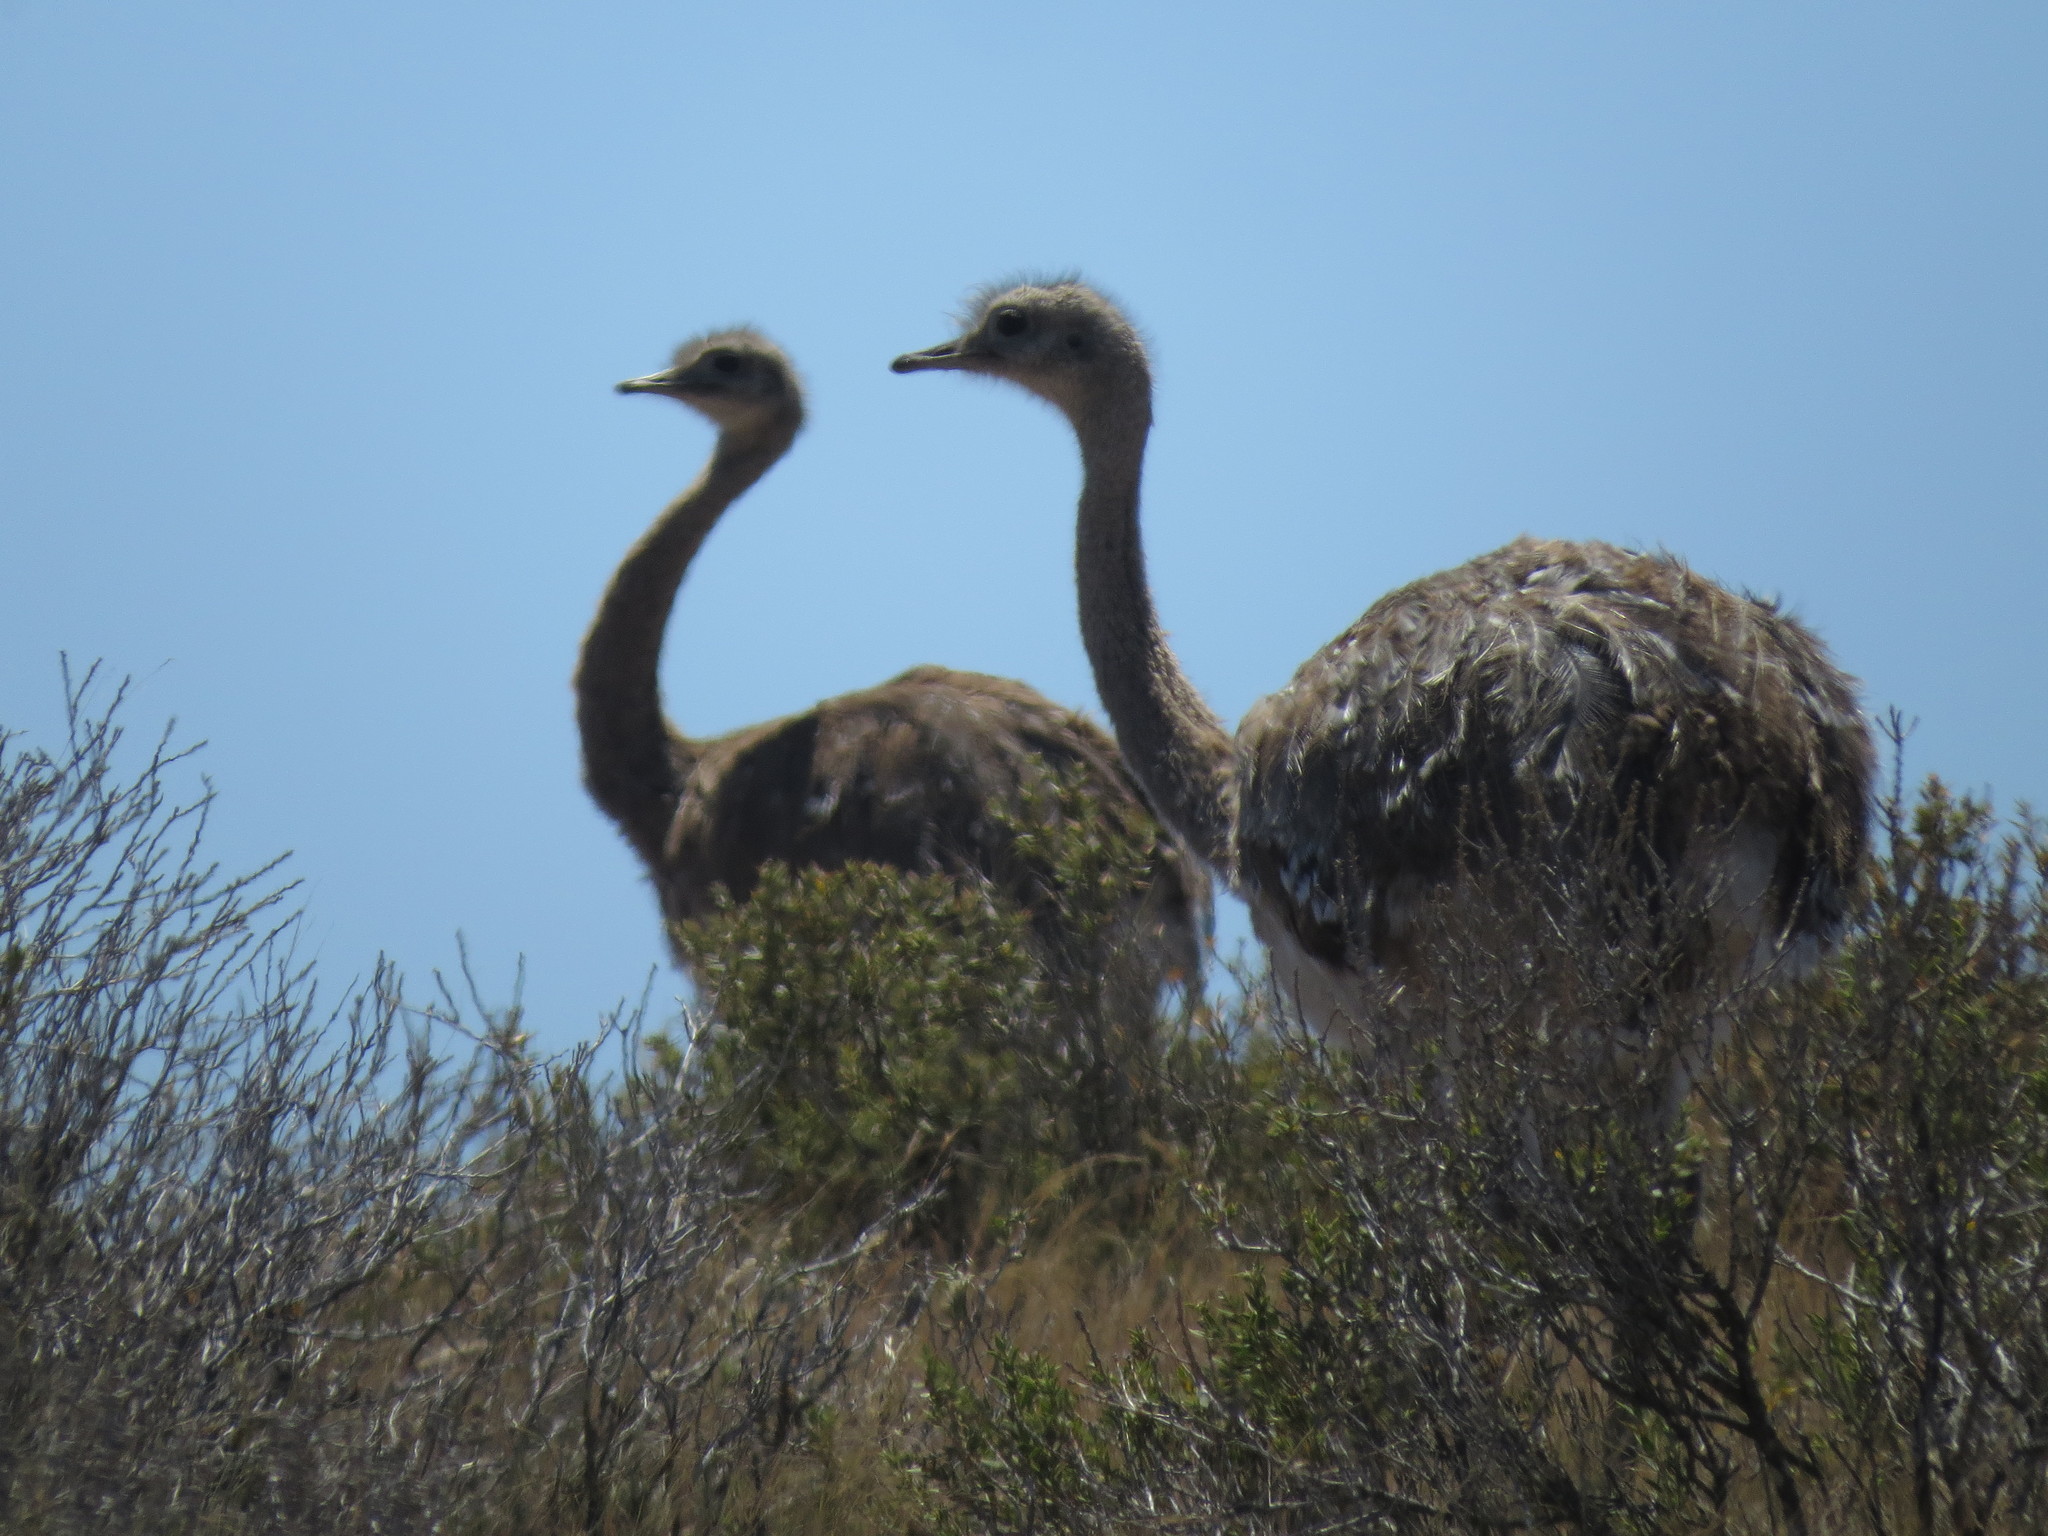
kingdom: Animalia
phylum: Chordata
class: Aves
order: Rheiformes
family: Rheidae
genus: Rhea
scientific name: Rhea pennata
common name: Lesser rhea
